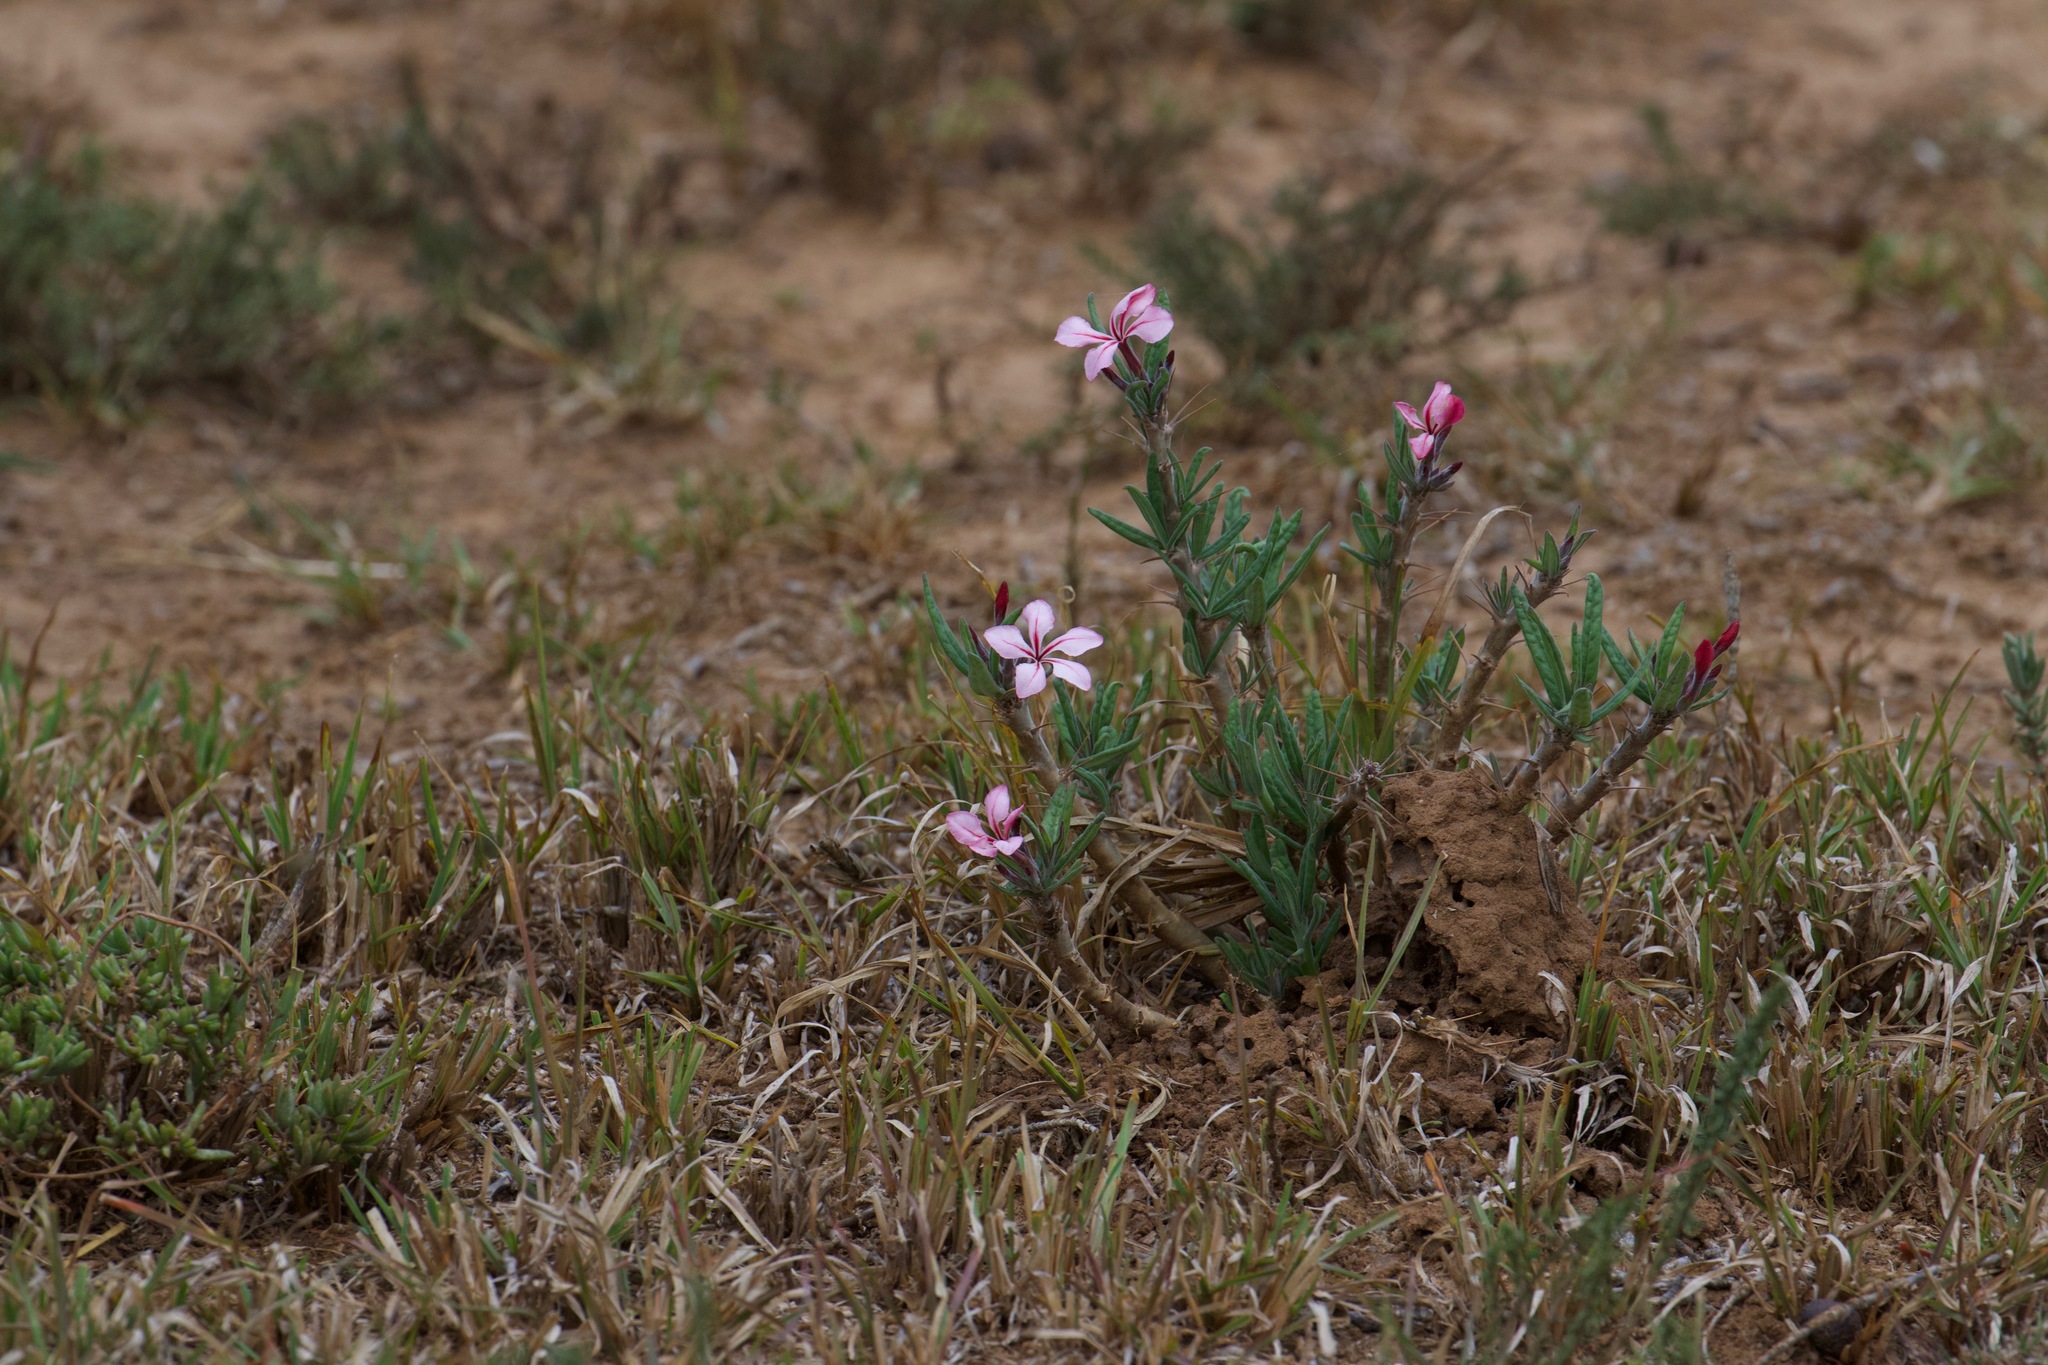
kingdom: Plantae
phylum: Tracheophyta
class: Magnoliopsida
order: Gentianales
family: Apocynaceae
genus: Pachypodium
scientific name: Pachypodium succulentum
